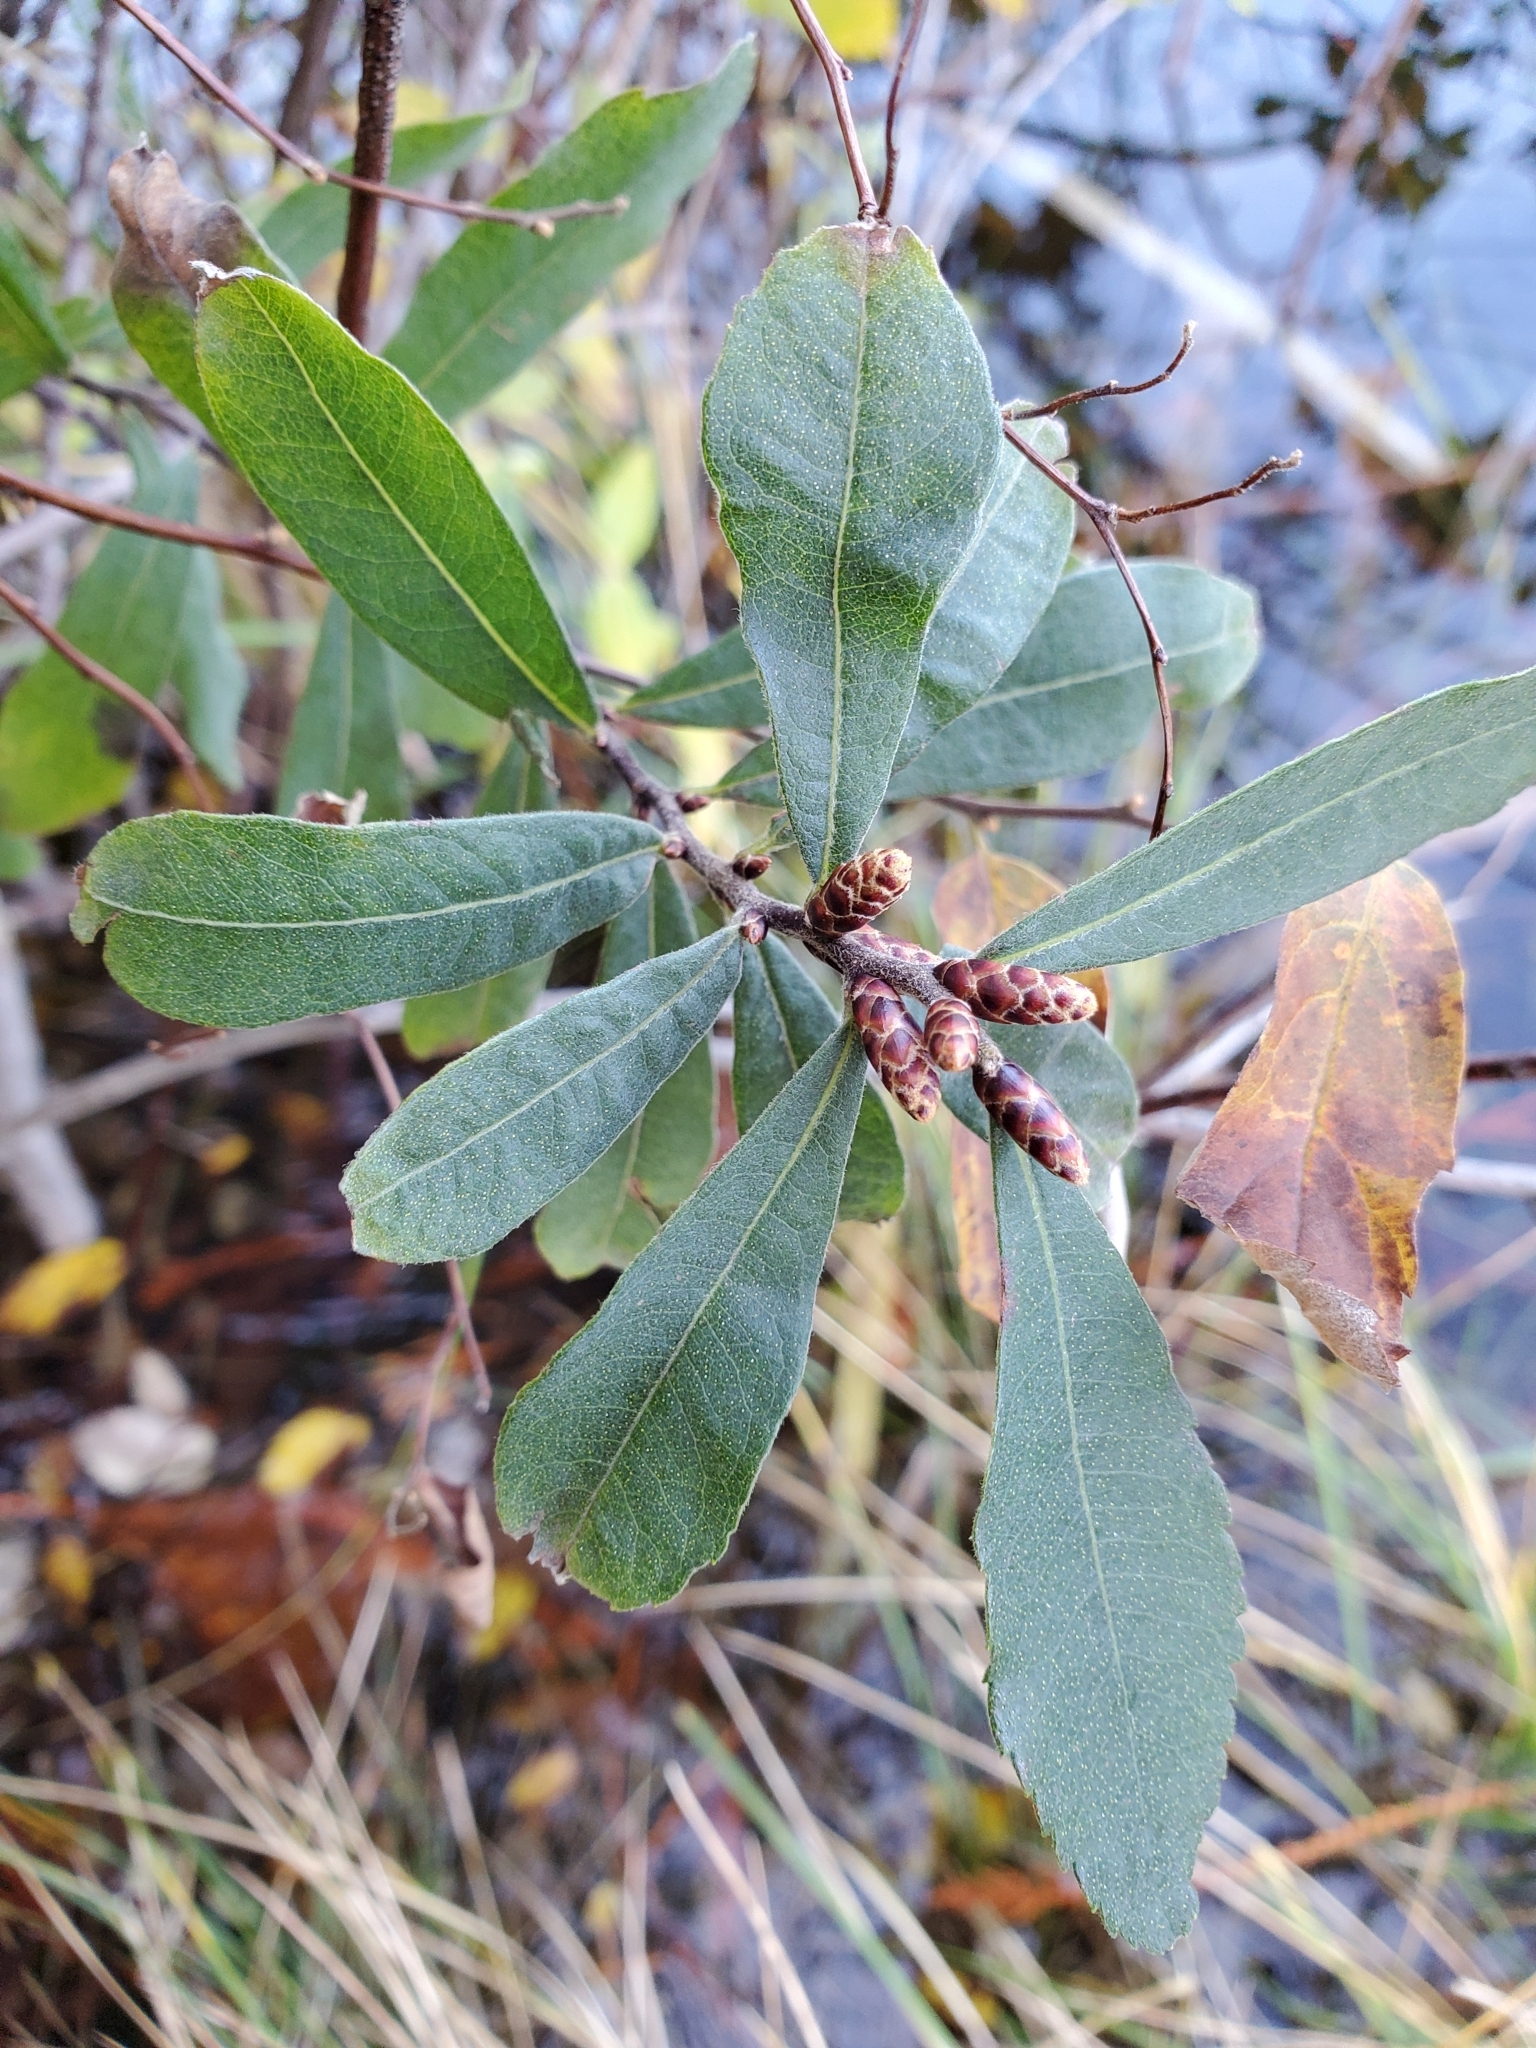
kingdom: Plantae
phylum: Tracheophyta
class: Magnoliopsida
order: Fagales
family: Myricaceae
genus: Myrica
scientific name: Myrica gale
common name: Sweet gale
